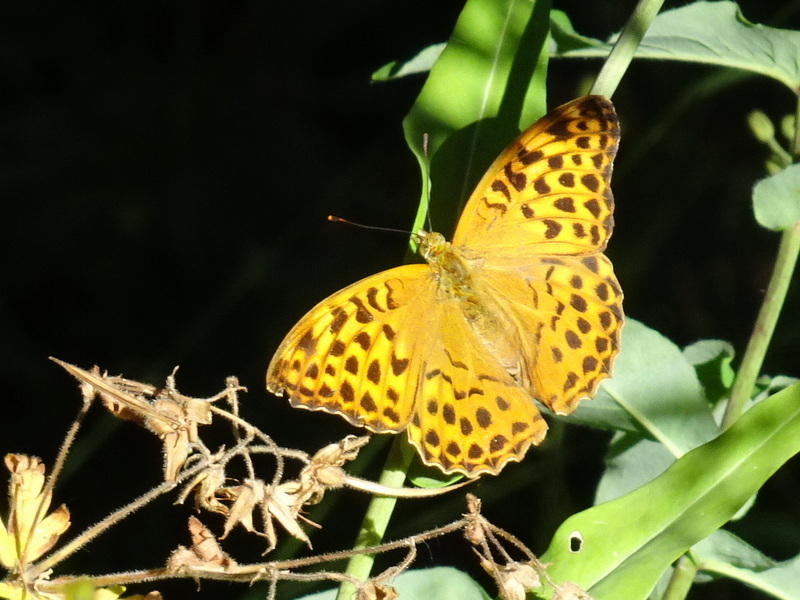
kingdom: Animalia
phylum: Arthropoda
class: Insecta
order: Lepidoptera
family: Nymphalidae
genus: Argynnis
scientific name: Argynnis paphia
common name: Silver-washed fritillary
